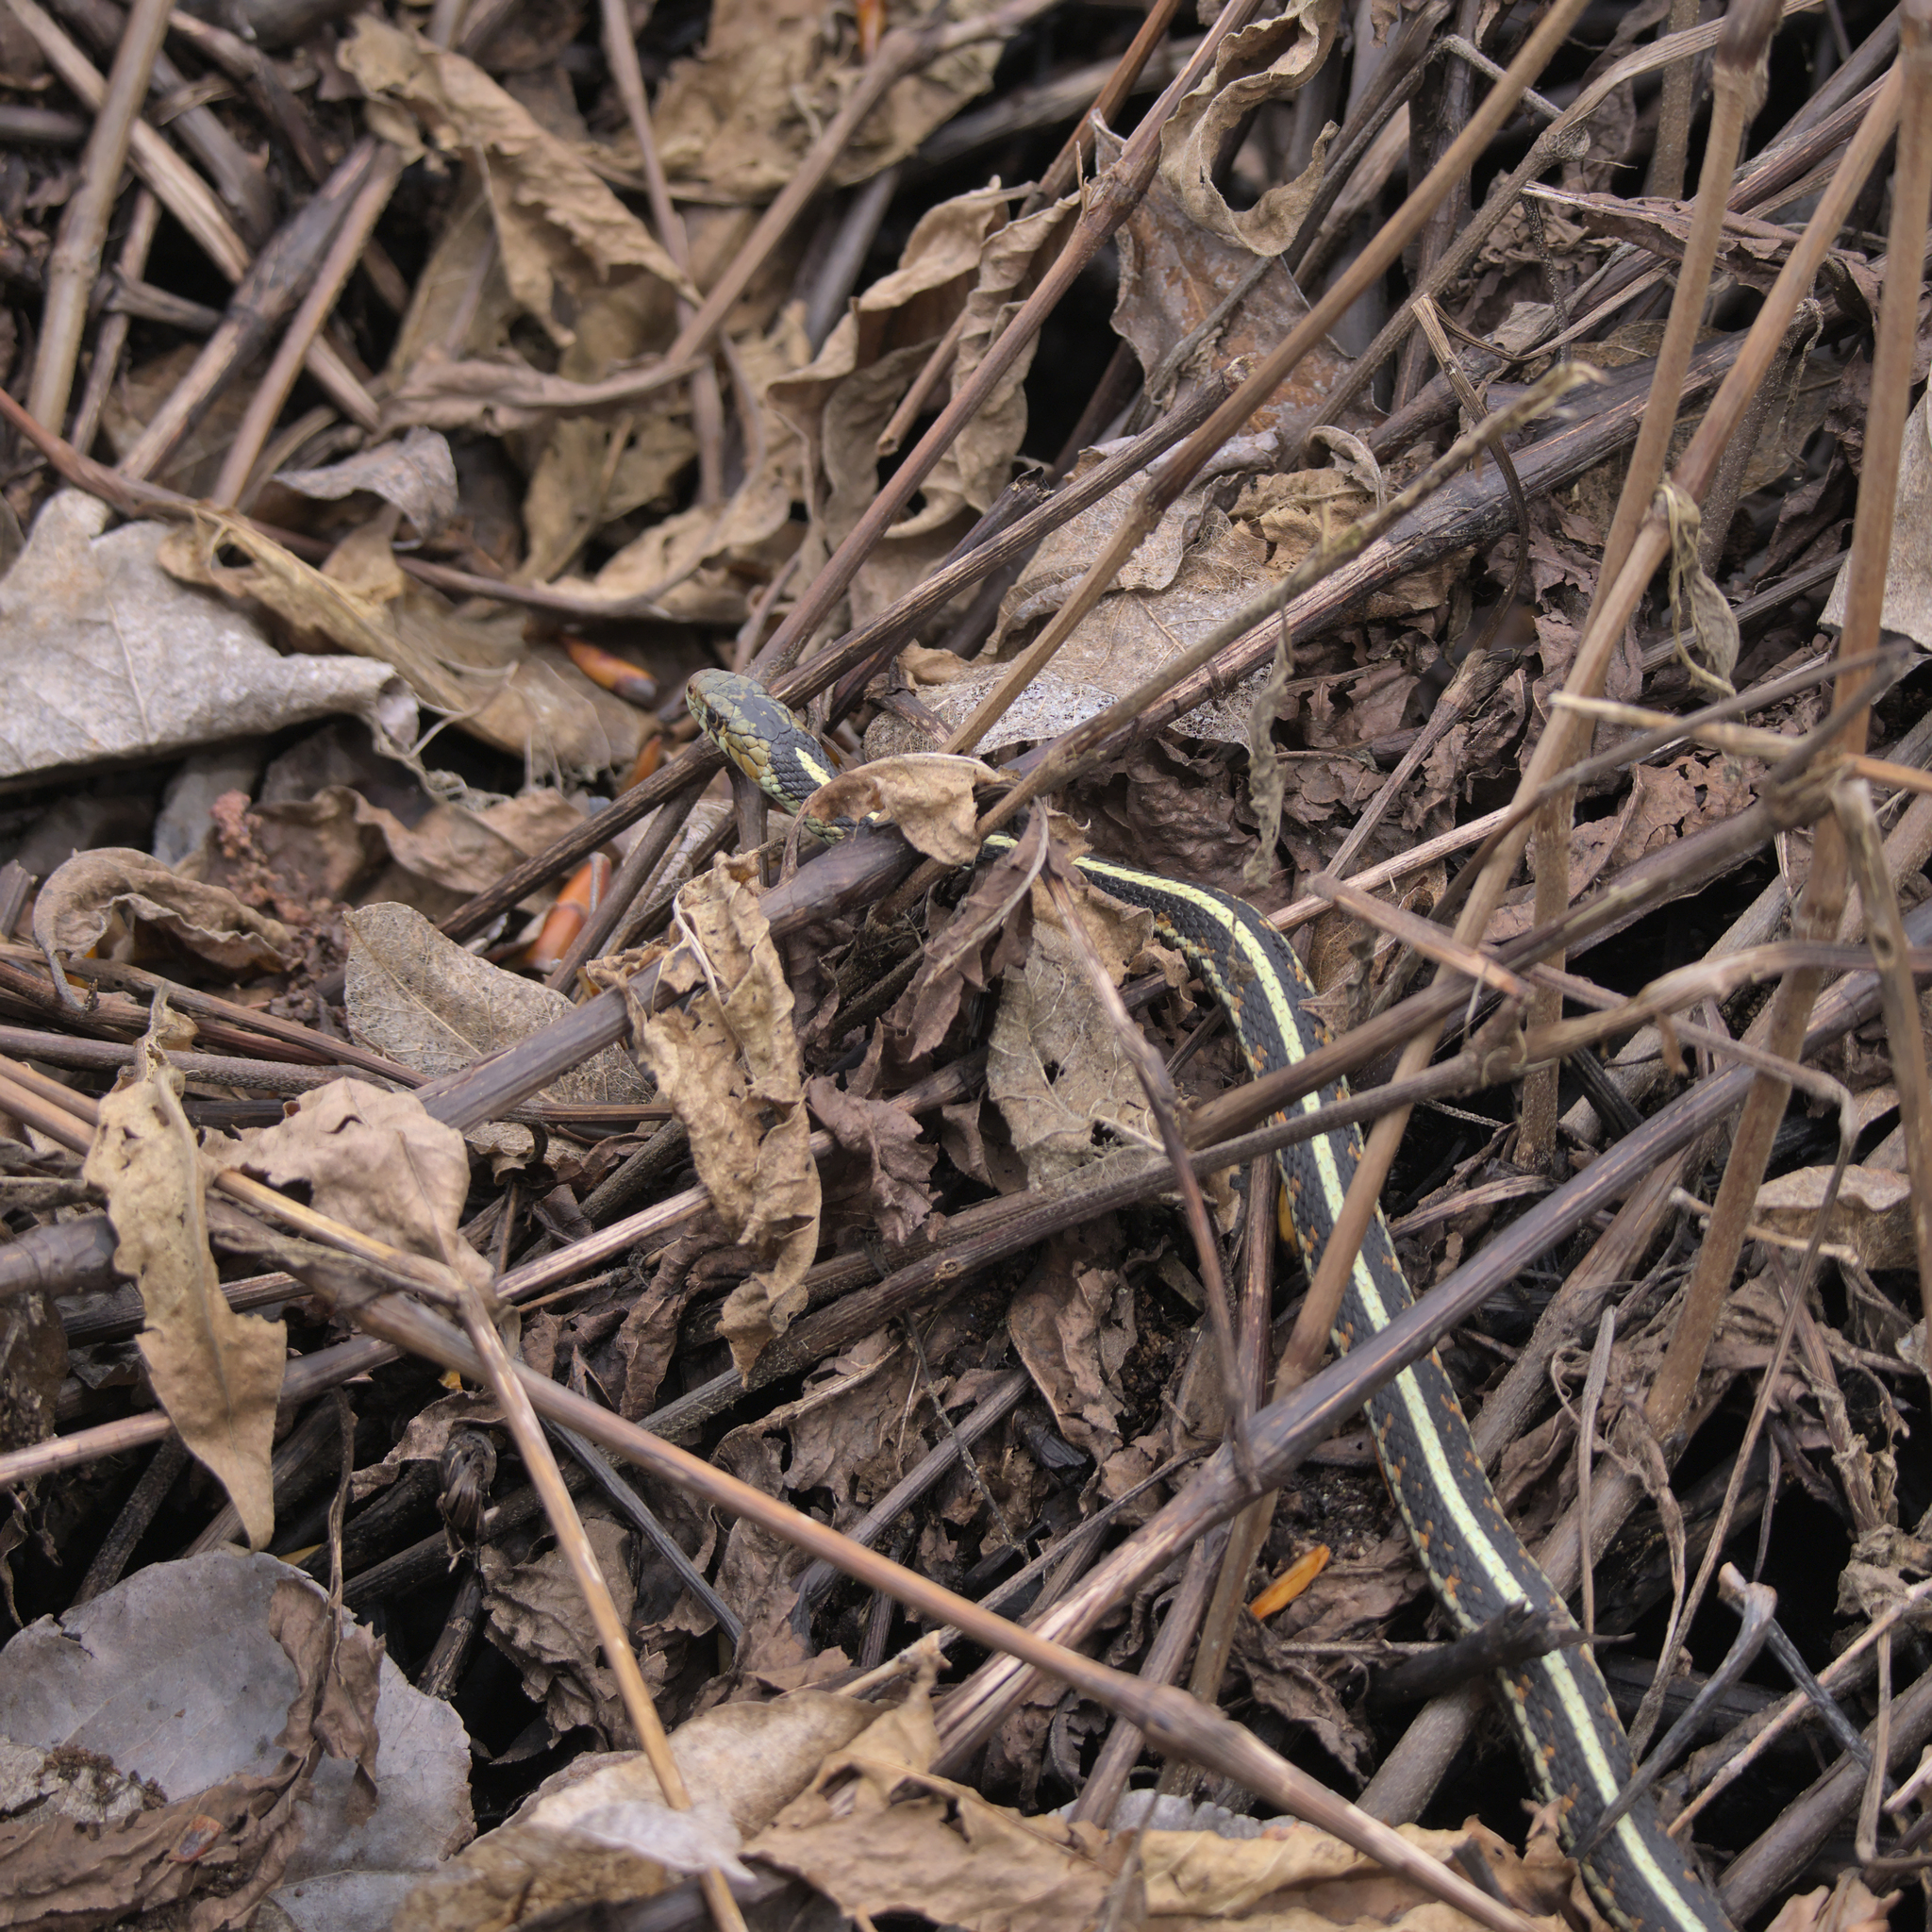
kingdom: Animalia
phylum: Chordata
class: Squamata
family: Colubridae
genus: Thamnophis
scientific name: Thamnophis sirtalis
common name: Common garter snake
